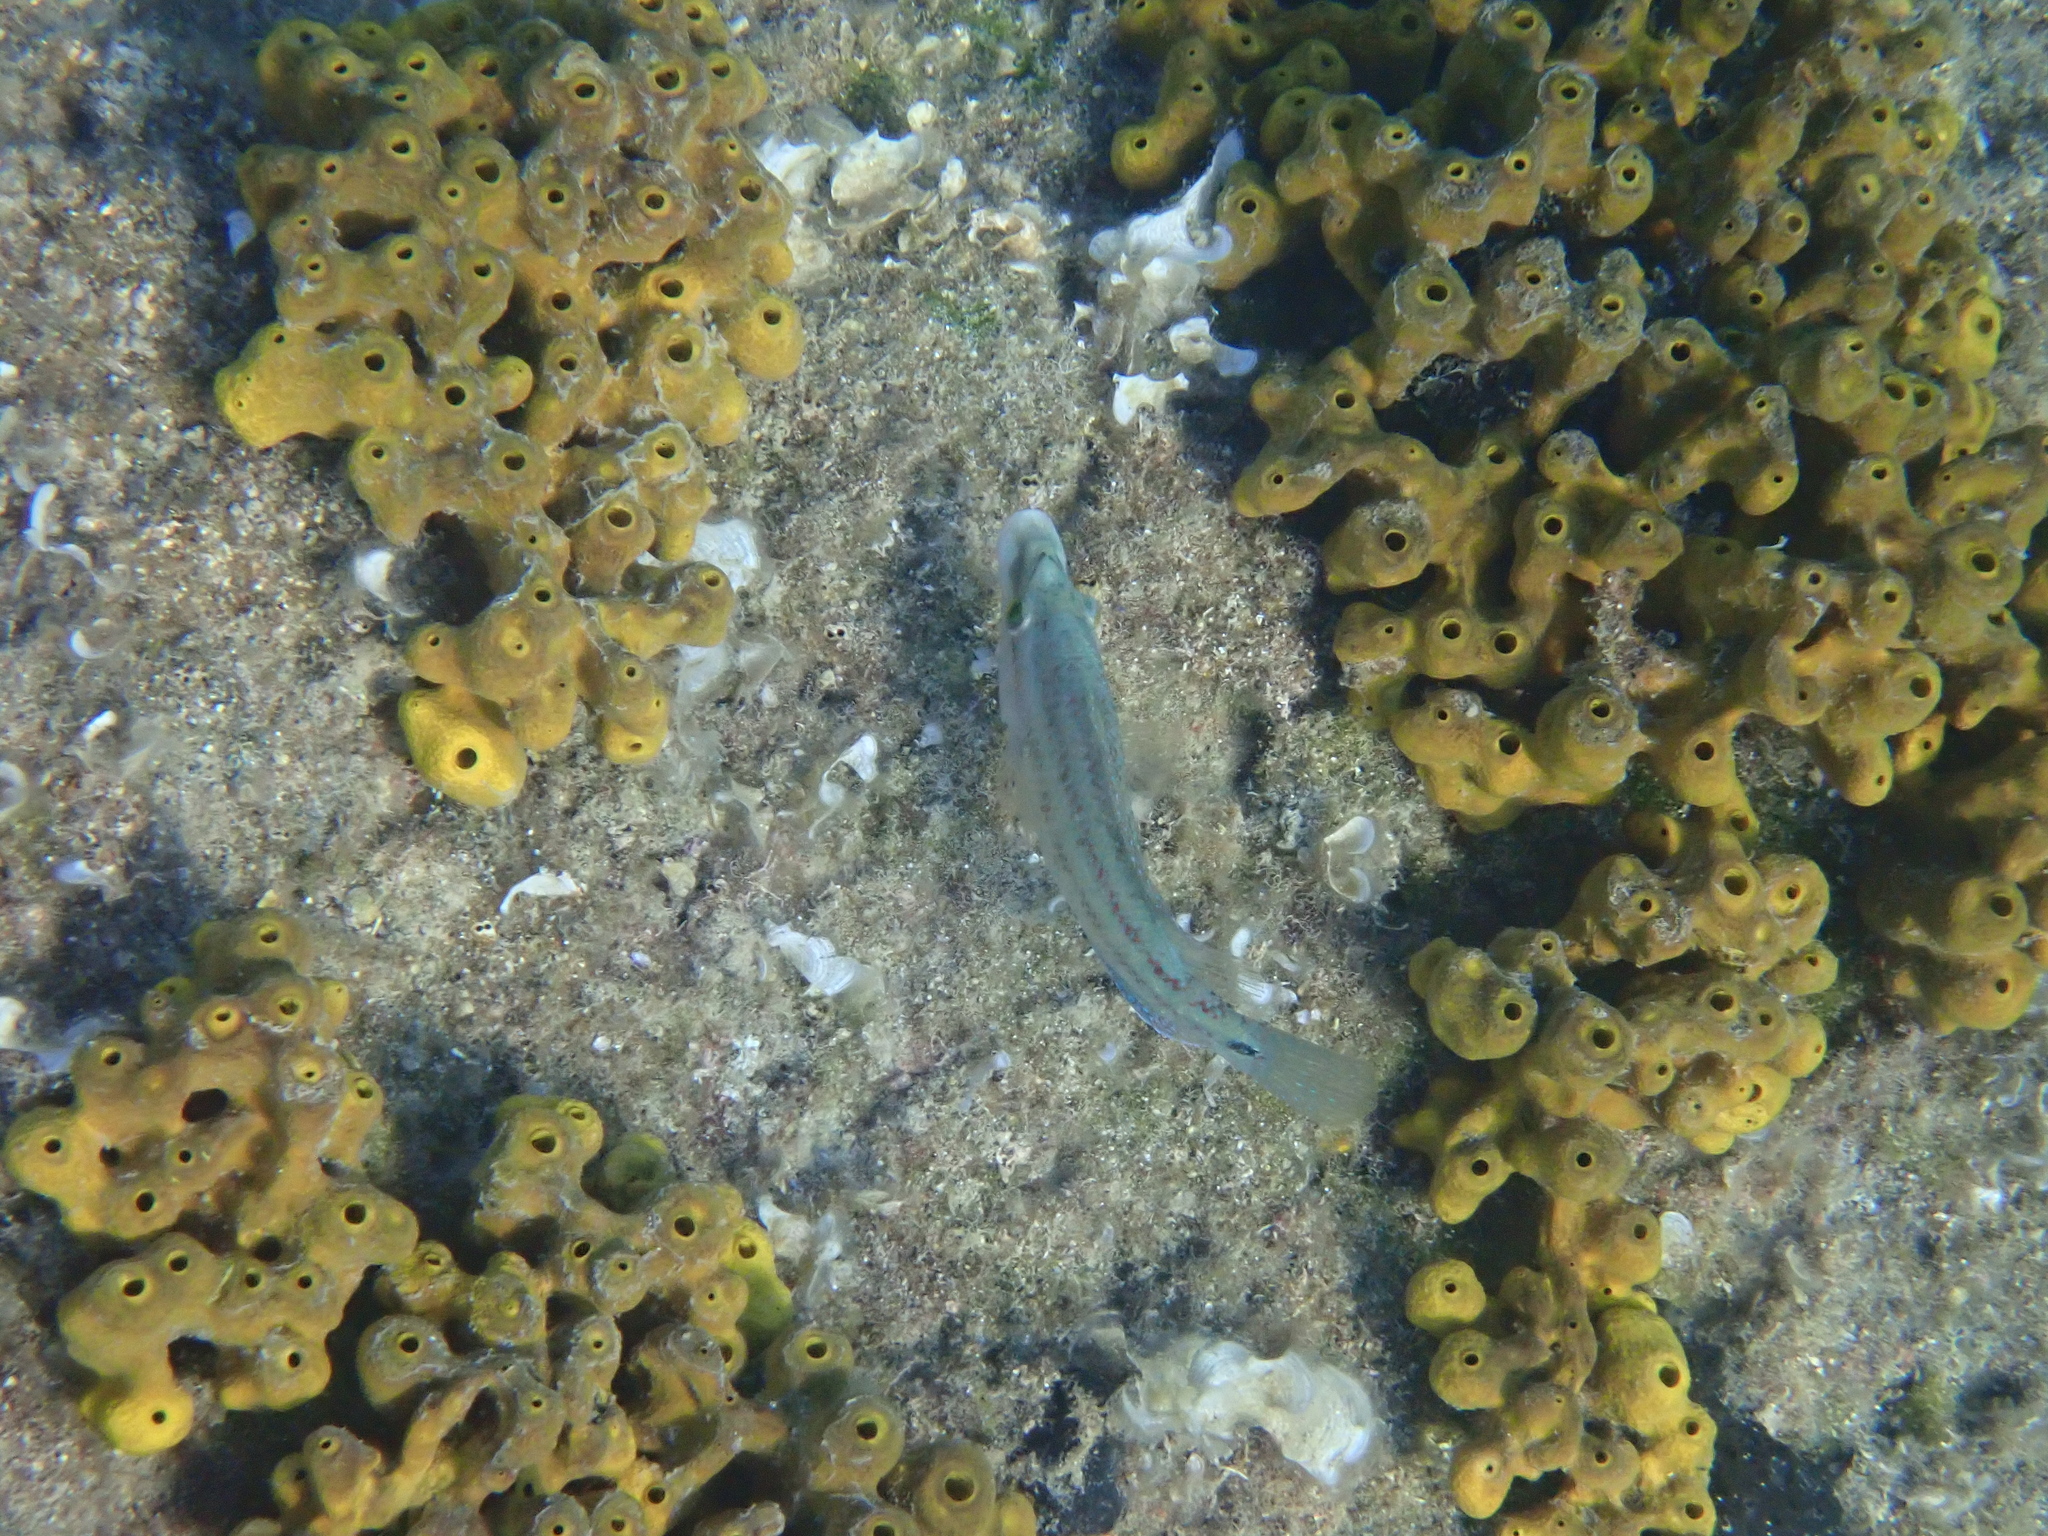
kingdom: Animalia
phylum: Chordata
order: Perciformes
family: Labridae
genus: Symphodus
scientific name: Symphodus tinca
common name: Peacock wrasse
